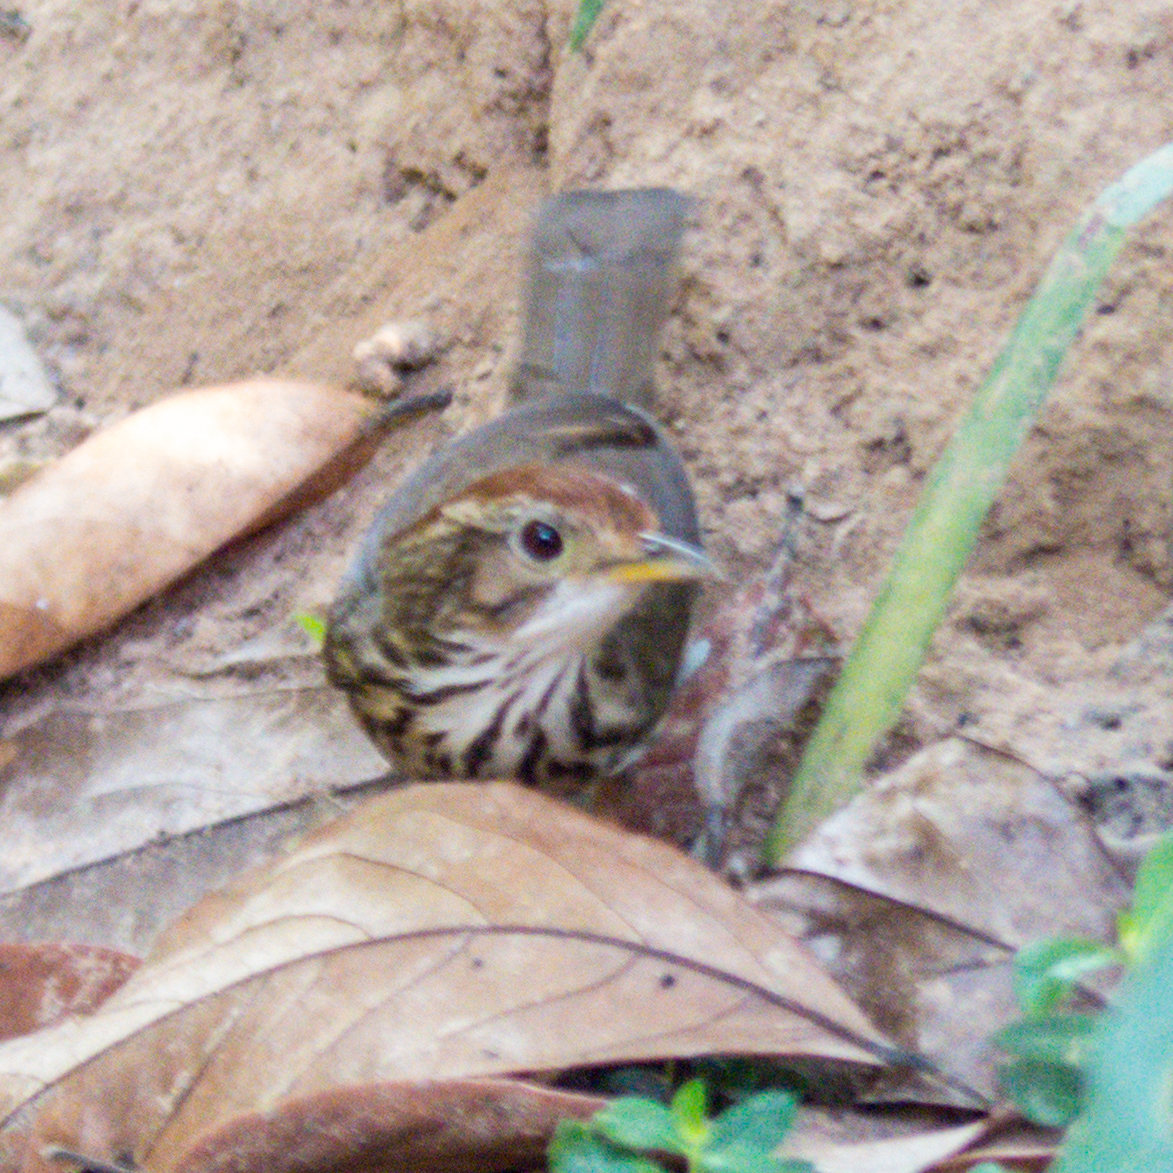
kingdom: Animalia
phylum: Chordata
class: Aves
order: Passeriformes
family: Pellorneidae
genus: Pellorneum
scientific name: Pellorneum ruficeps
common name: Puff-throated babbler
